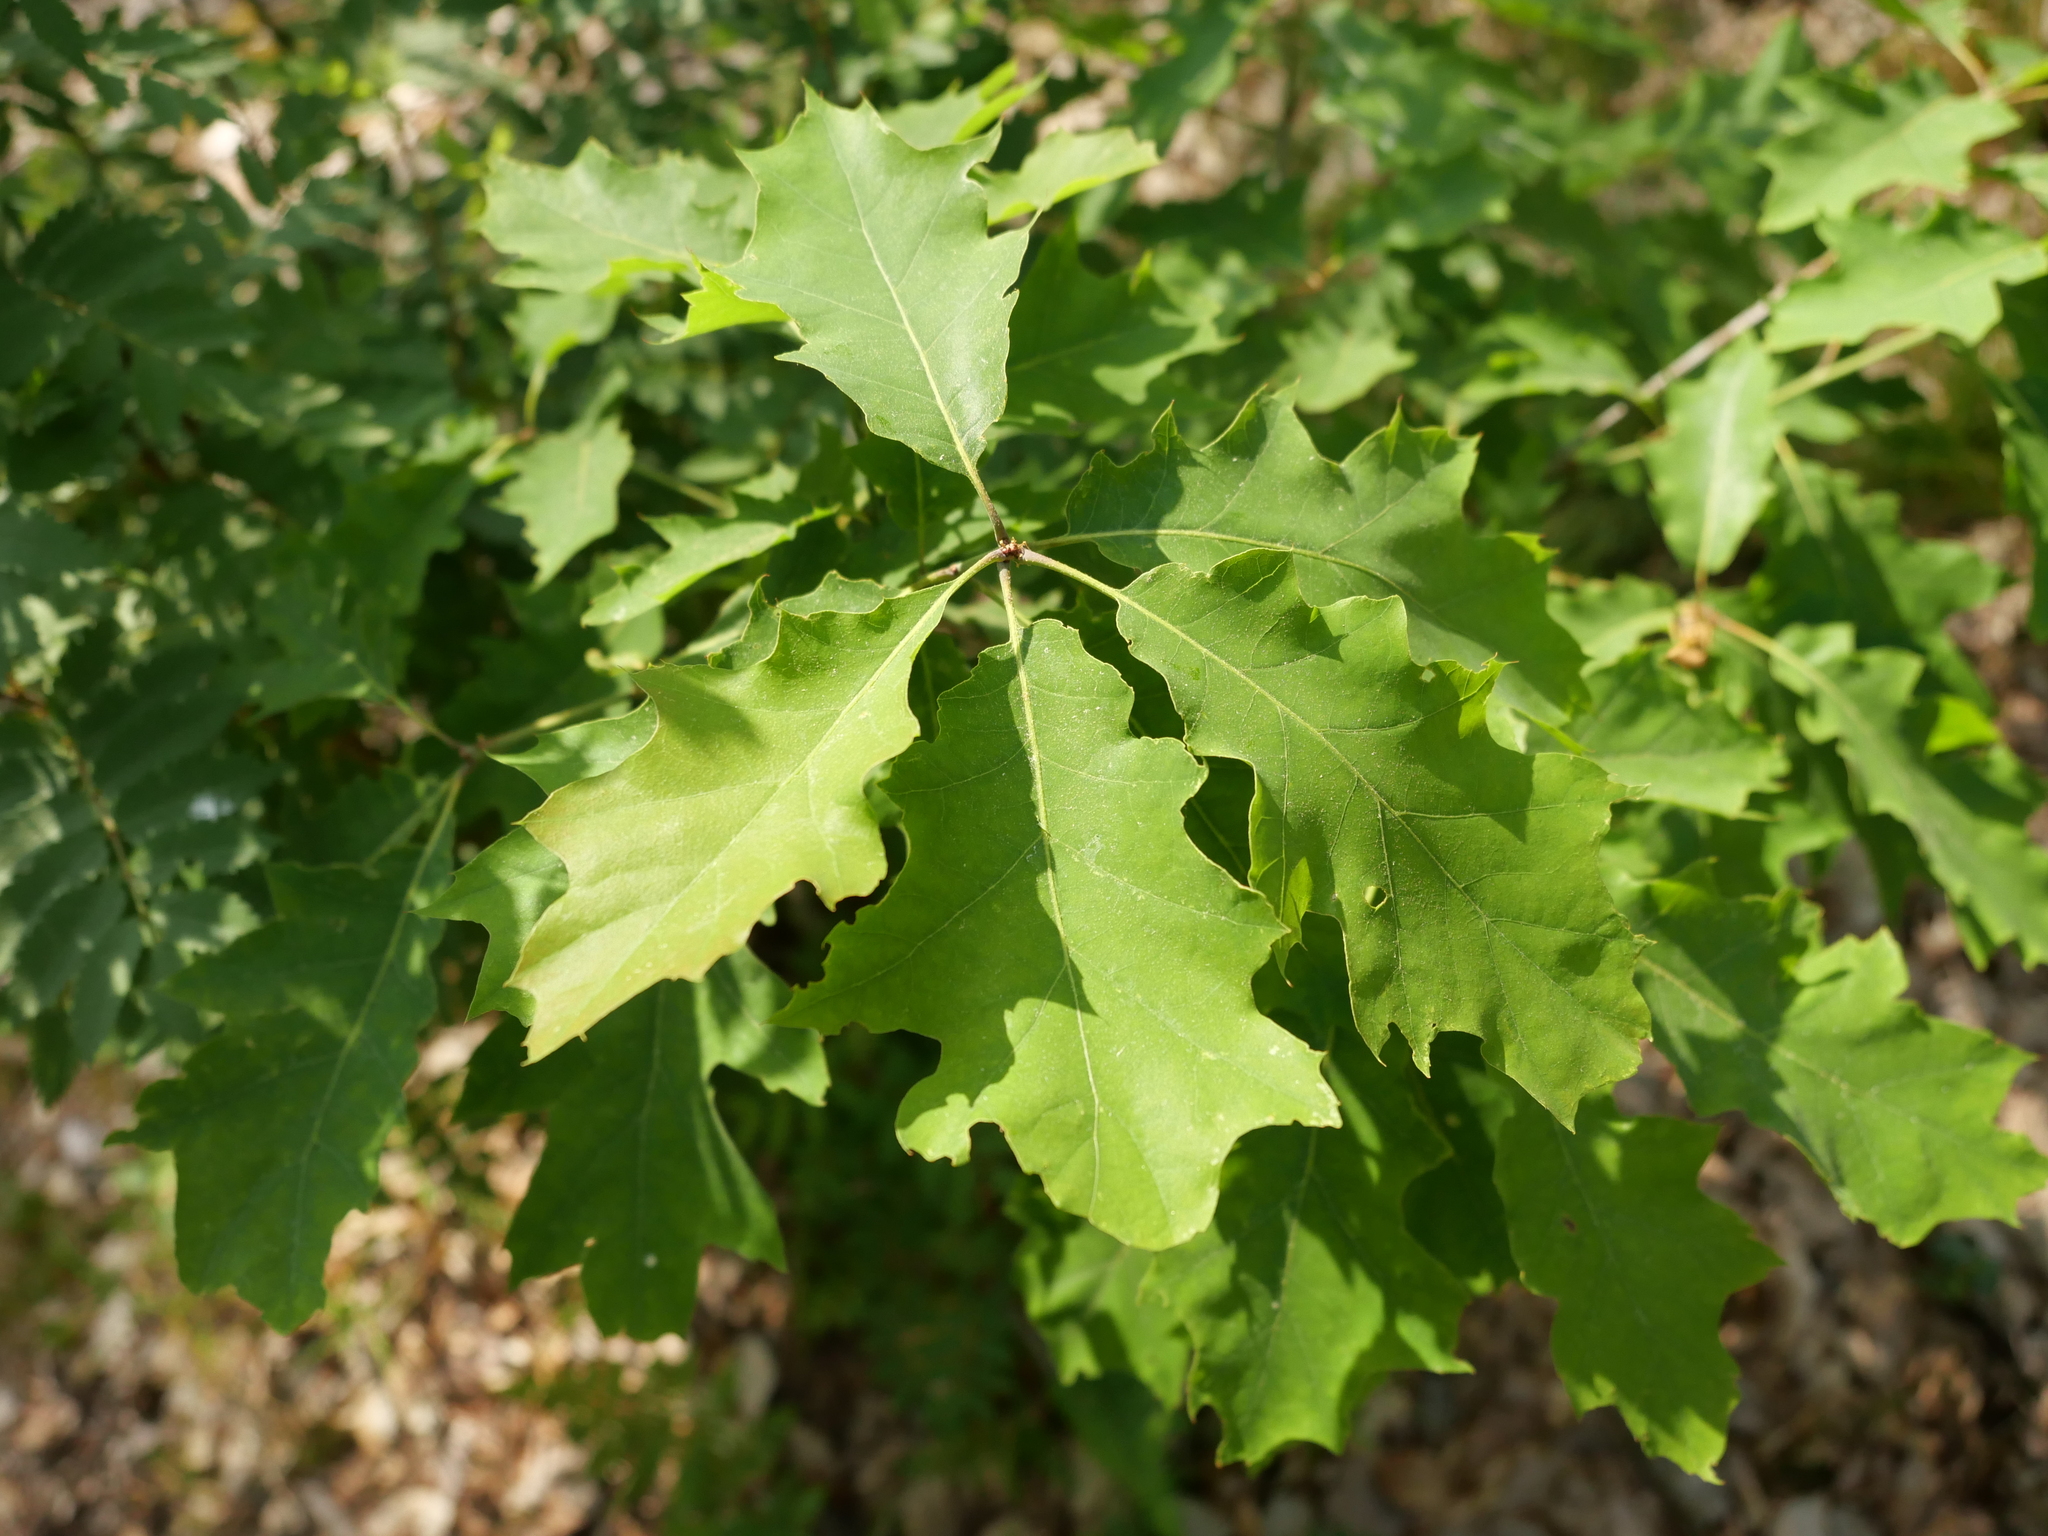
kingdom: Plantae
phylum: Tracheophyta
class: Magnoliopsida
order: Fagales
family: Fagaceae
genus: Quercus
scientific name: Quercus rubra
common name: Red oak
